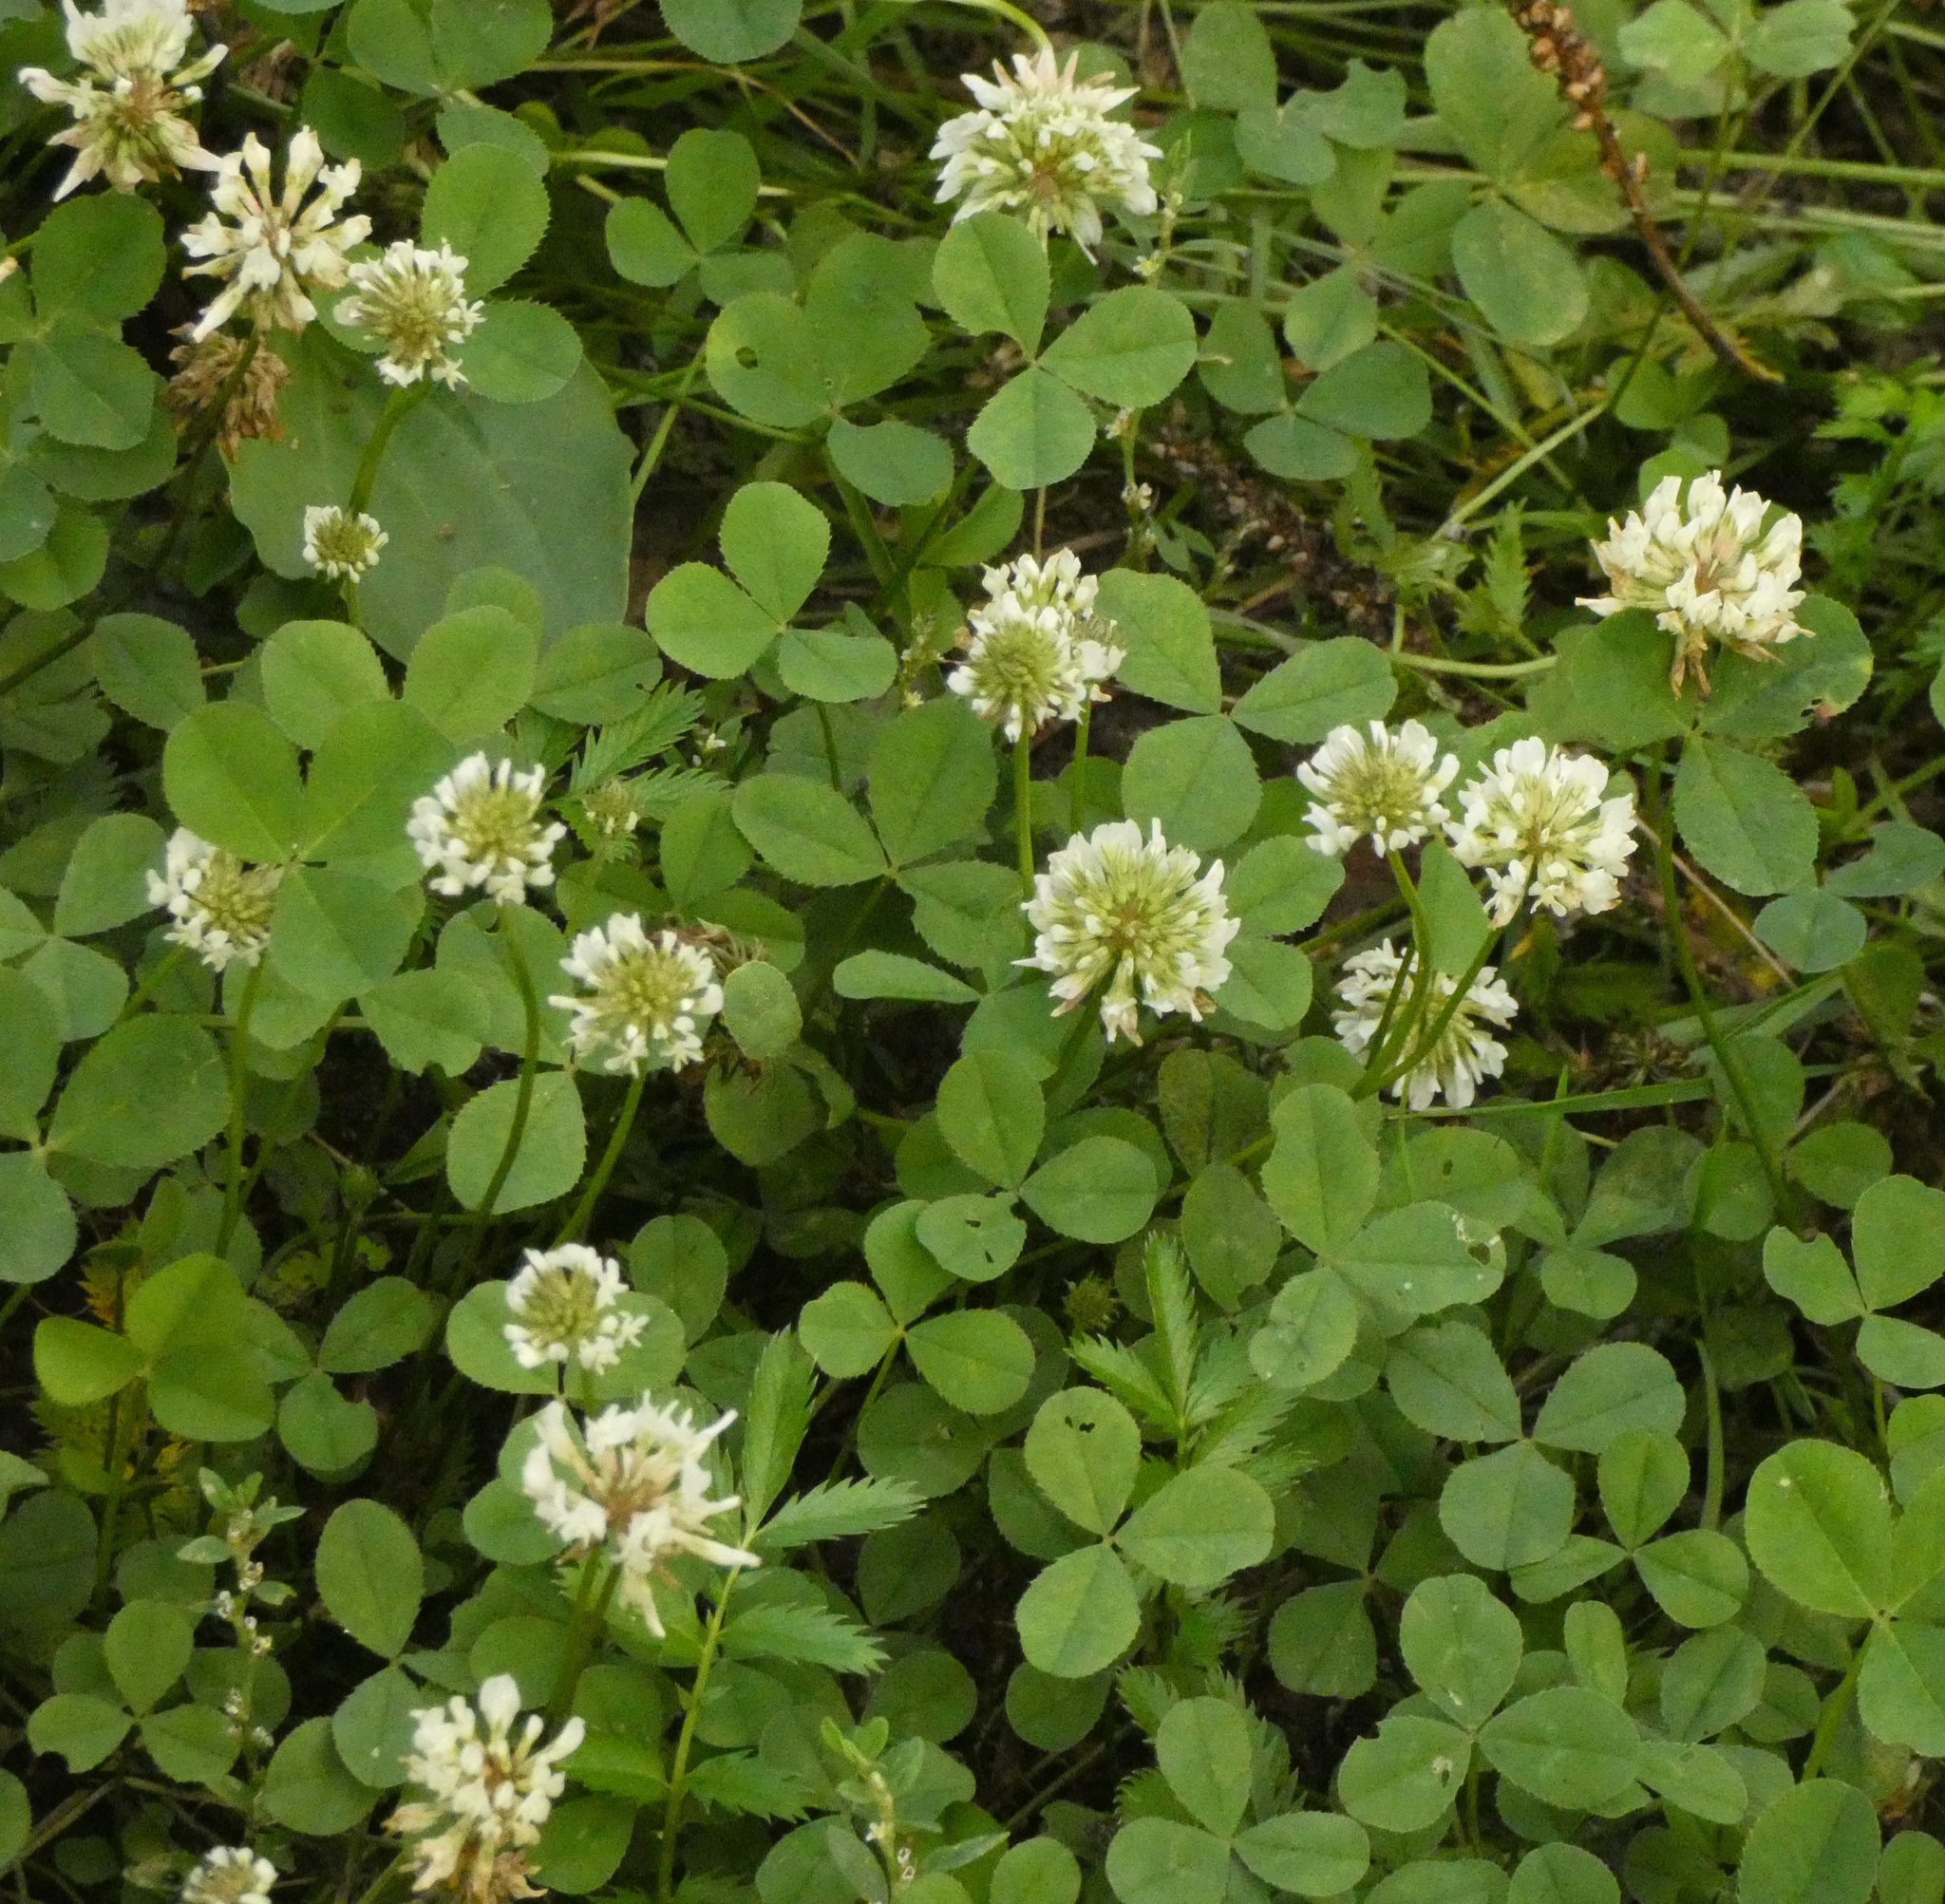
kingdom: Plantae
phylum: Tracheophyta
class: Magnoliopsida
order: Fabales
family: Fabaceae
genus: Trifolium
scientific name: Trifolium repens
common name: White clover
